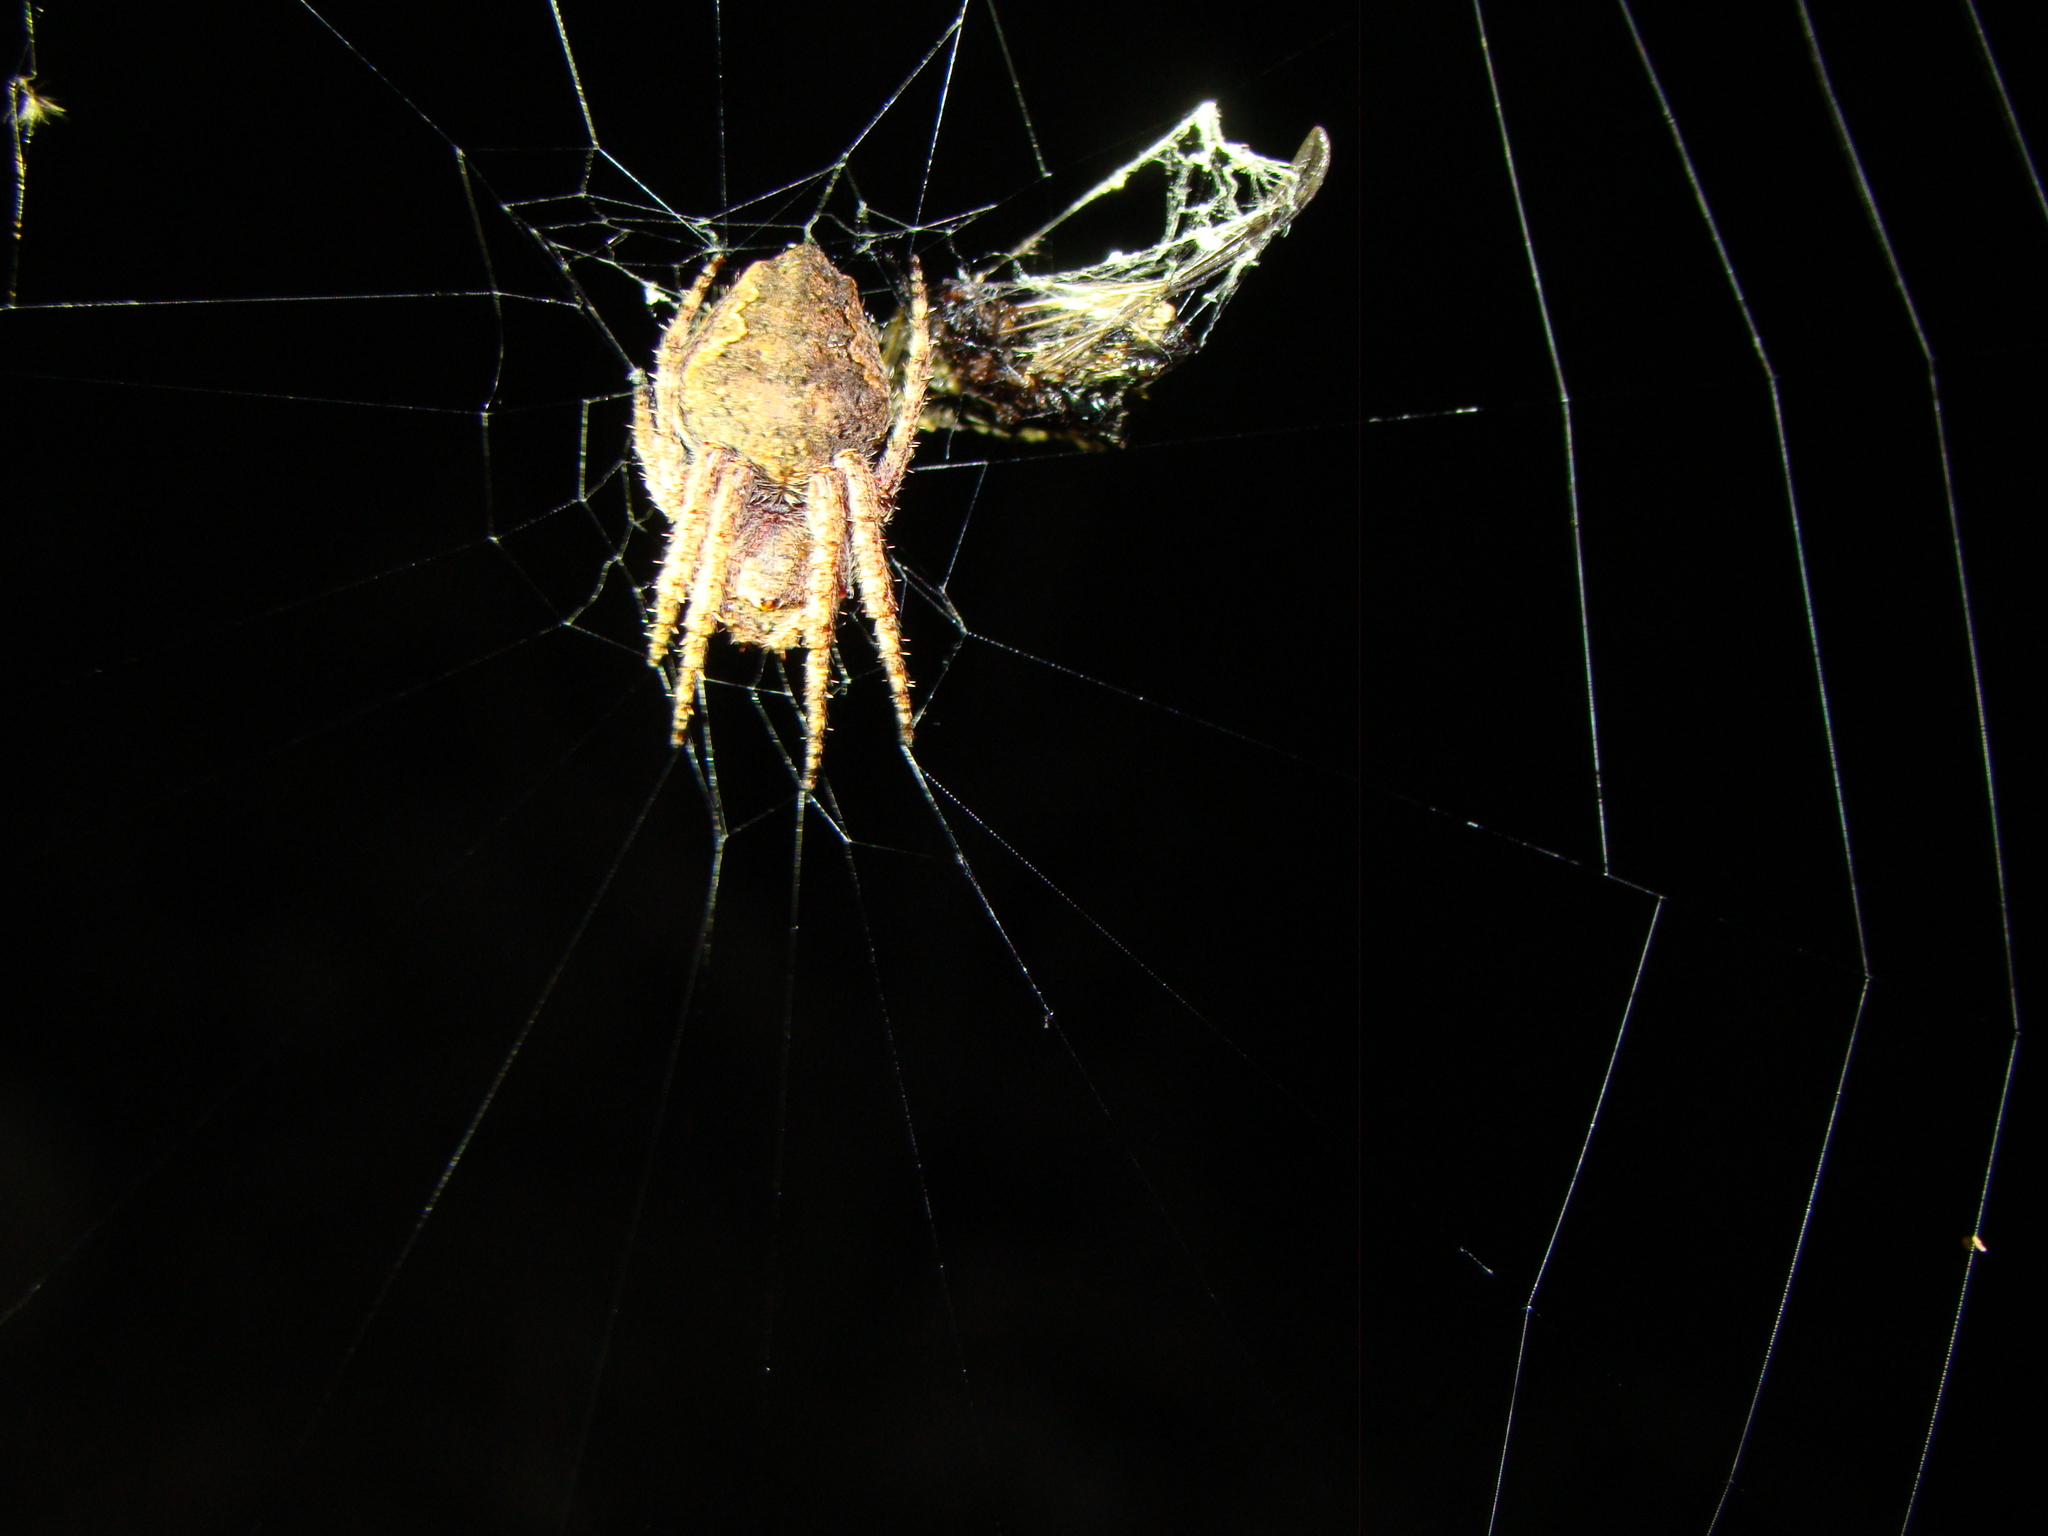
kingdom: Animalia
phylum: Arthropoda
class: Arachnida
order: Araneae
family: Araneidae
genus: Eriophora
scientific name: Eriophora pustulosa
